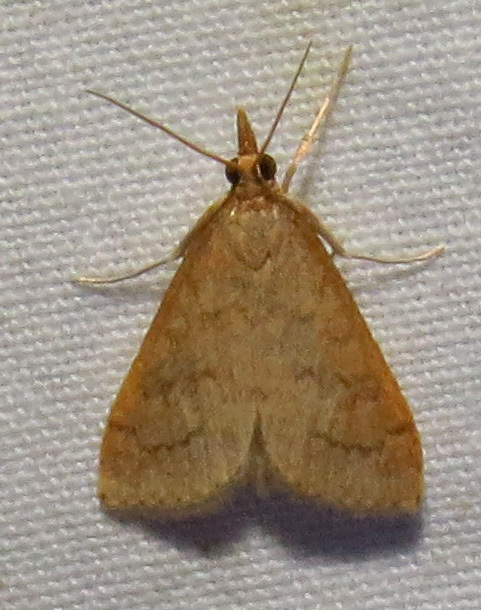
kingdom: Animalia
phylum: Arthropoda
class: Insecta
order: Lepidoptera
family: Crambidae
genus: Udea
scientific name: Udea rubigalis
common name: Celery leaftier moth
